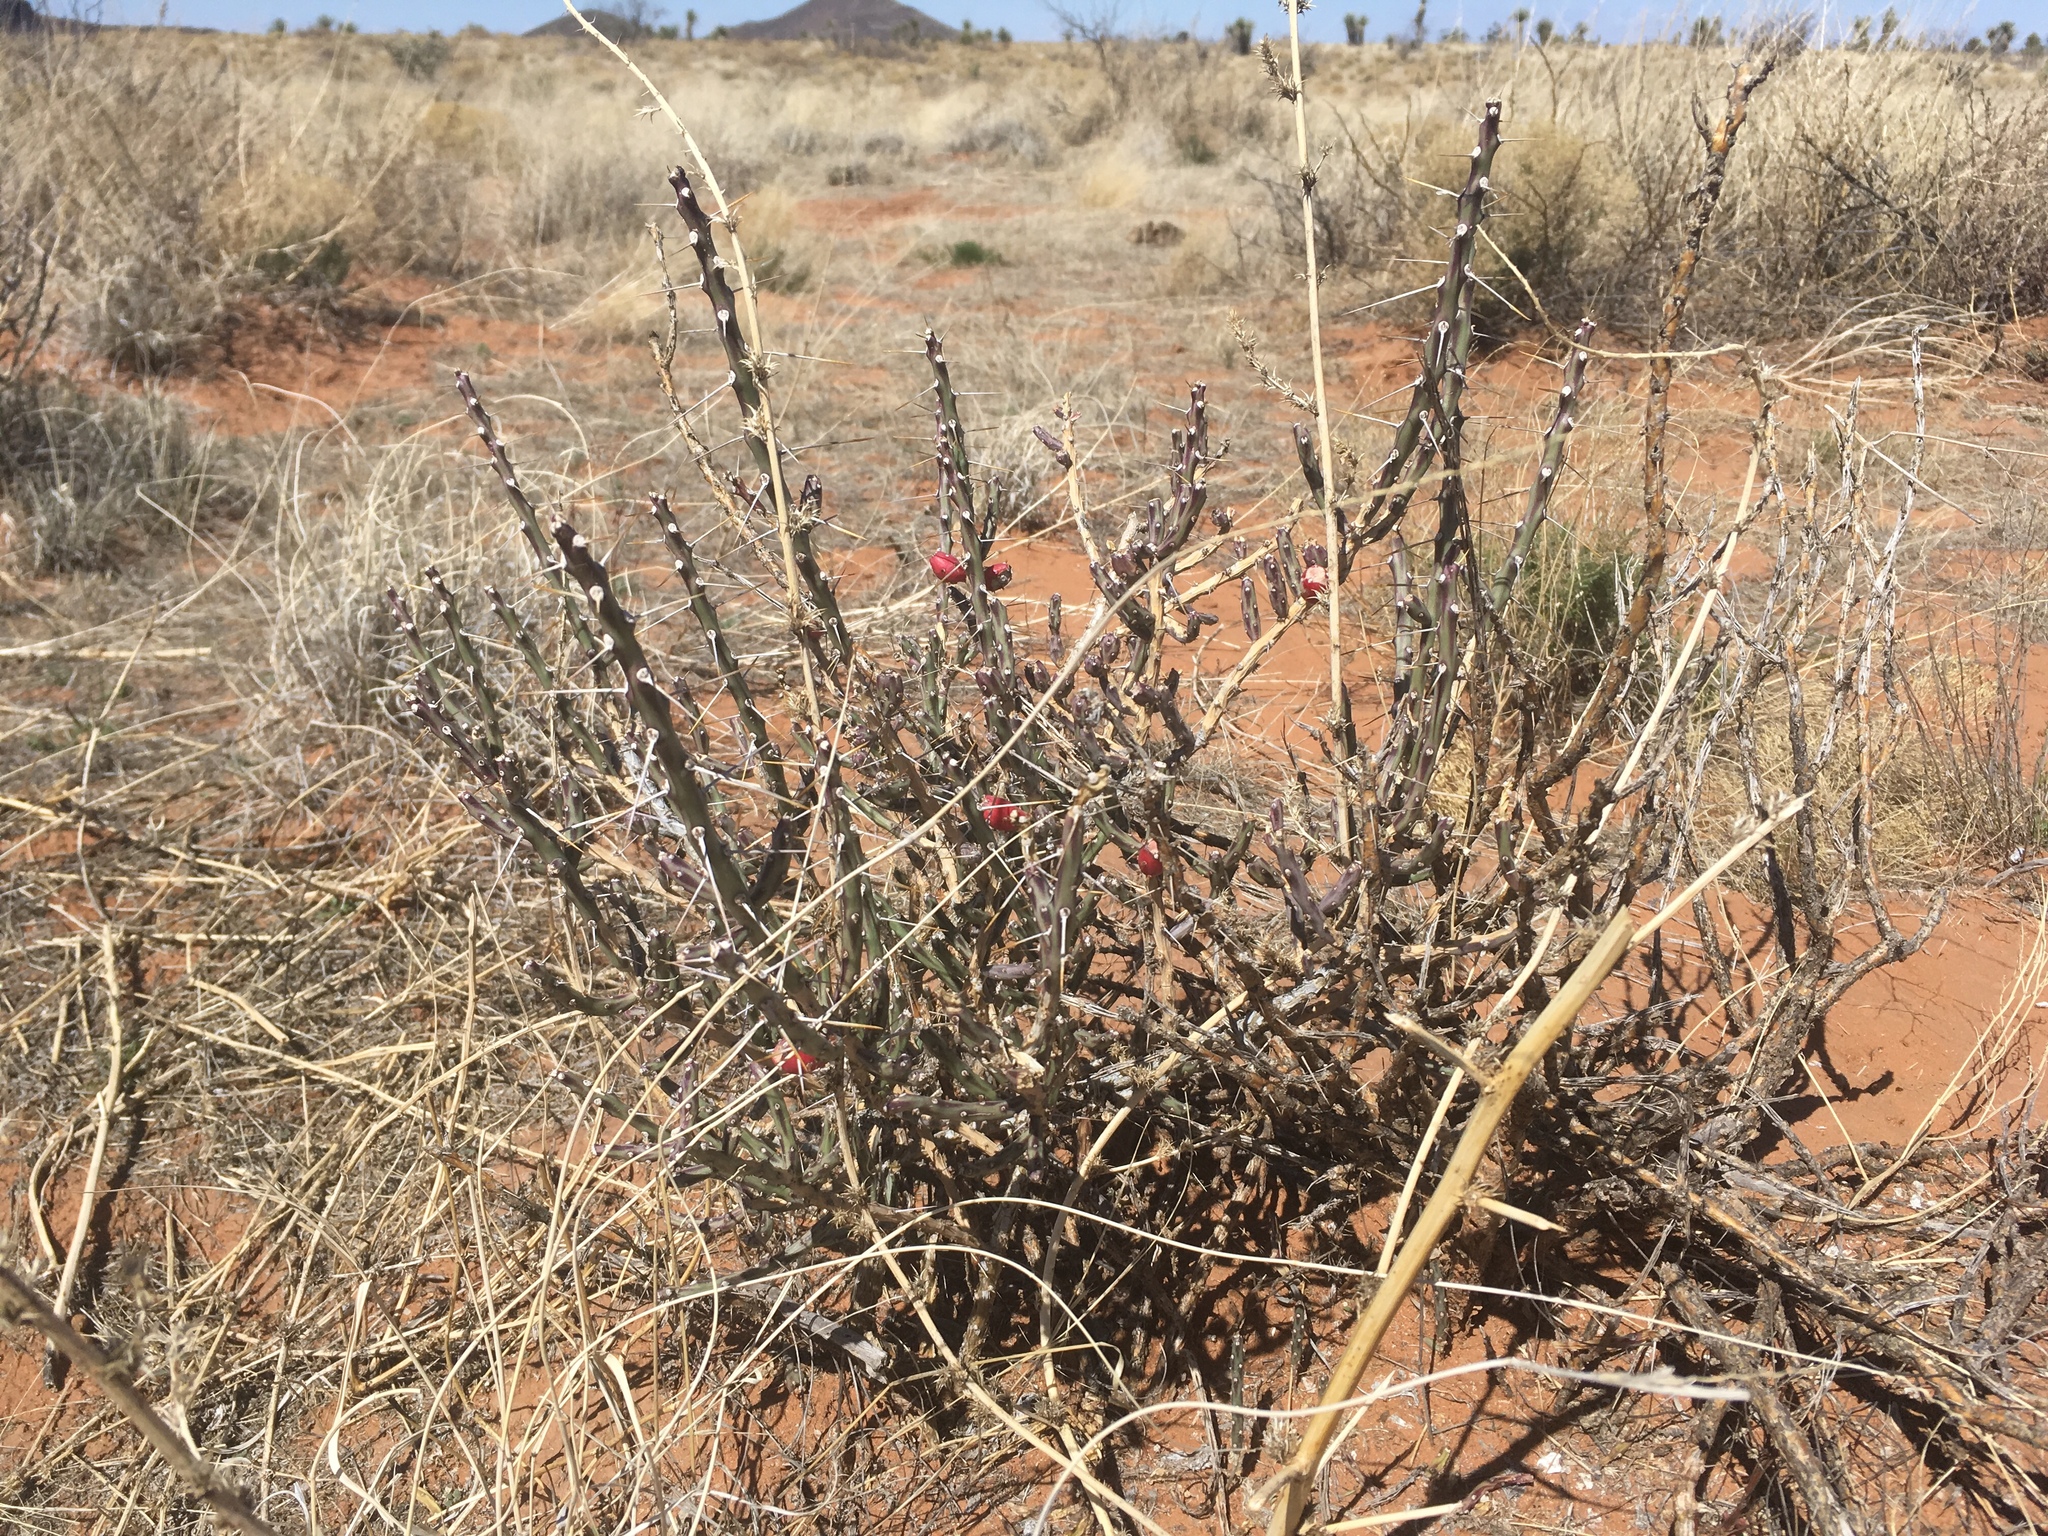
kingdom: Plantae
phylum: Tracheophyta
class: Magnoliopsida
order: Caryophyllales
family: Cactaceae
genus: Cylindropuntia
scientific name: Cylindropuntia leptocaulis
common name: Christmas cactus
